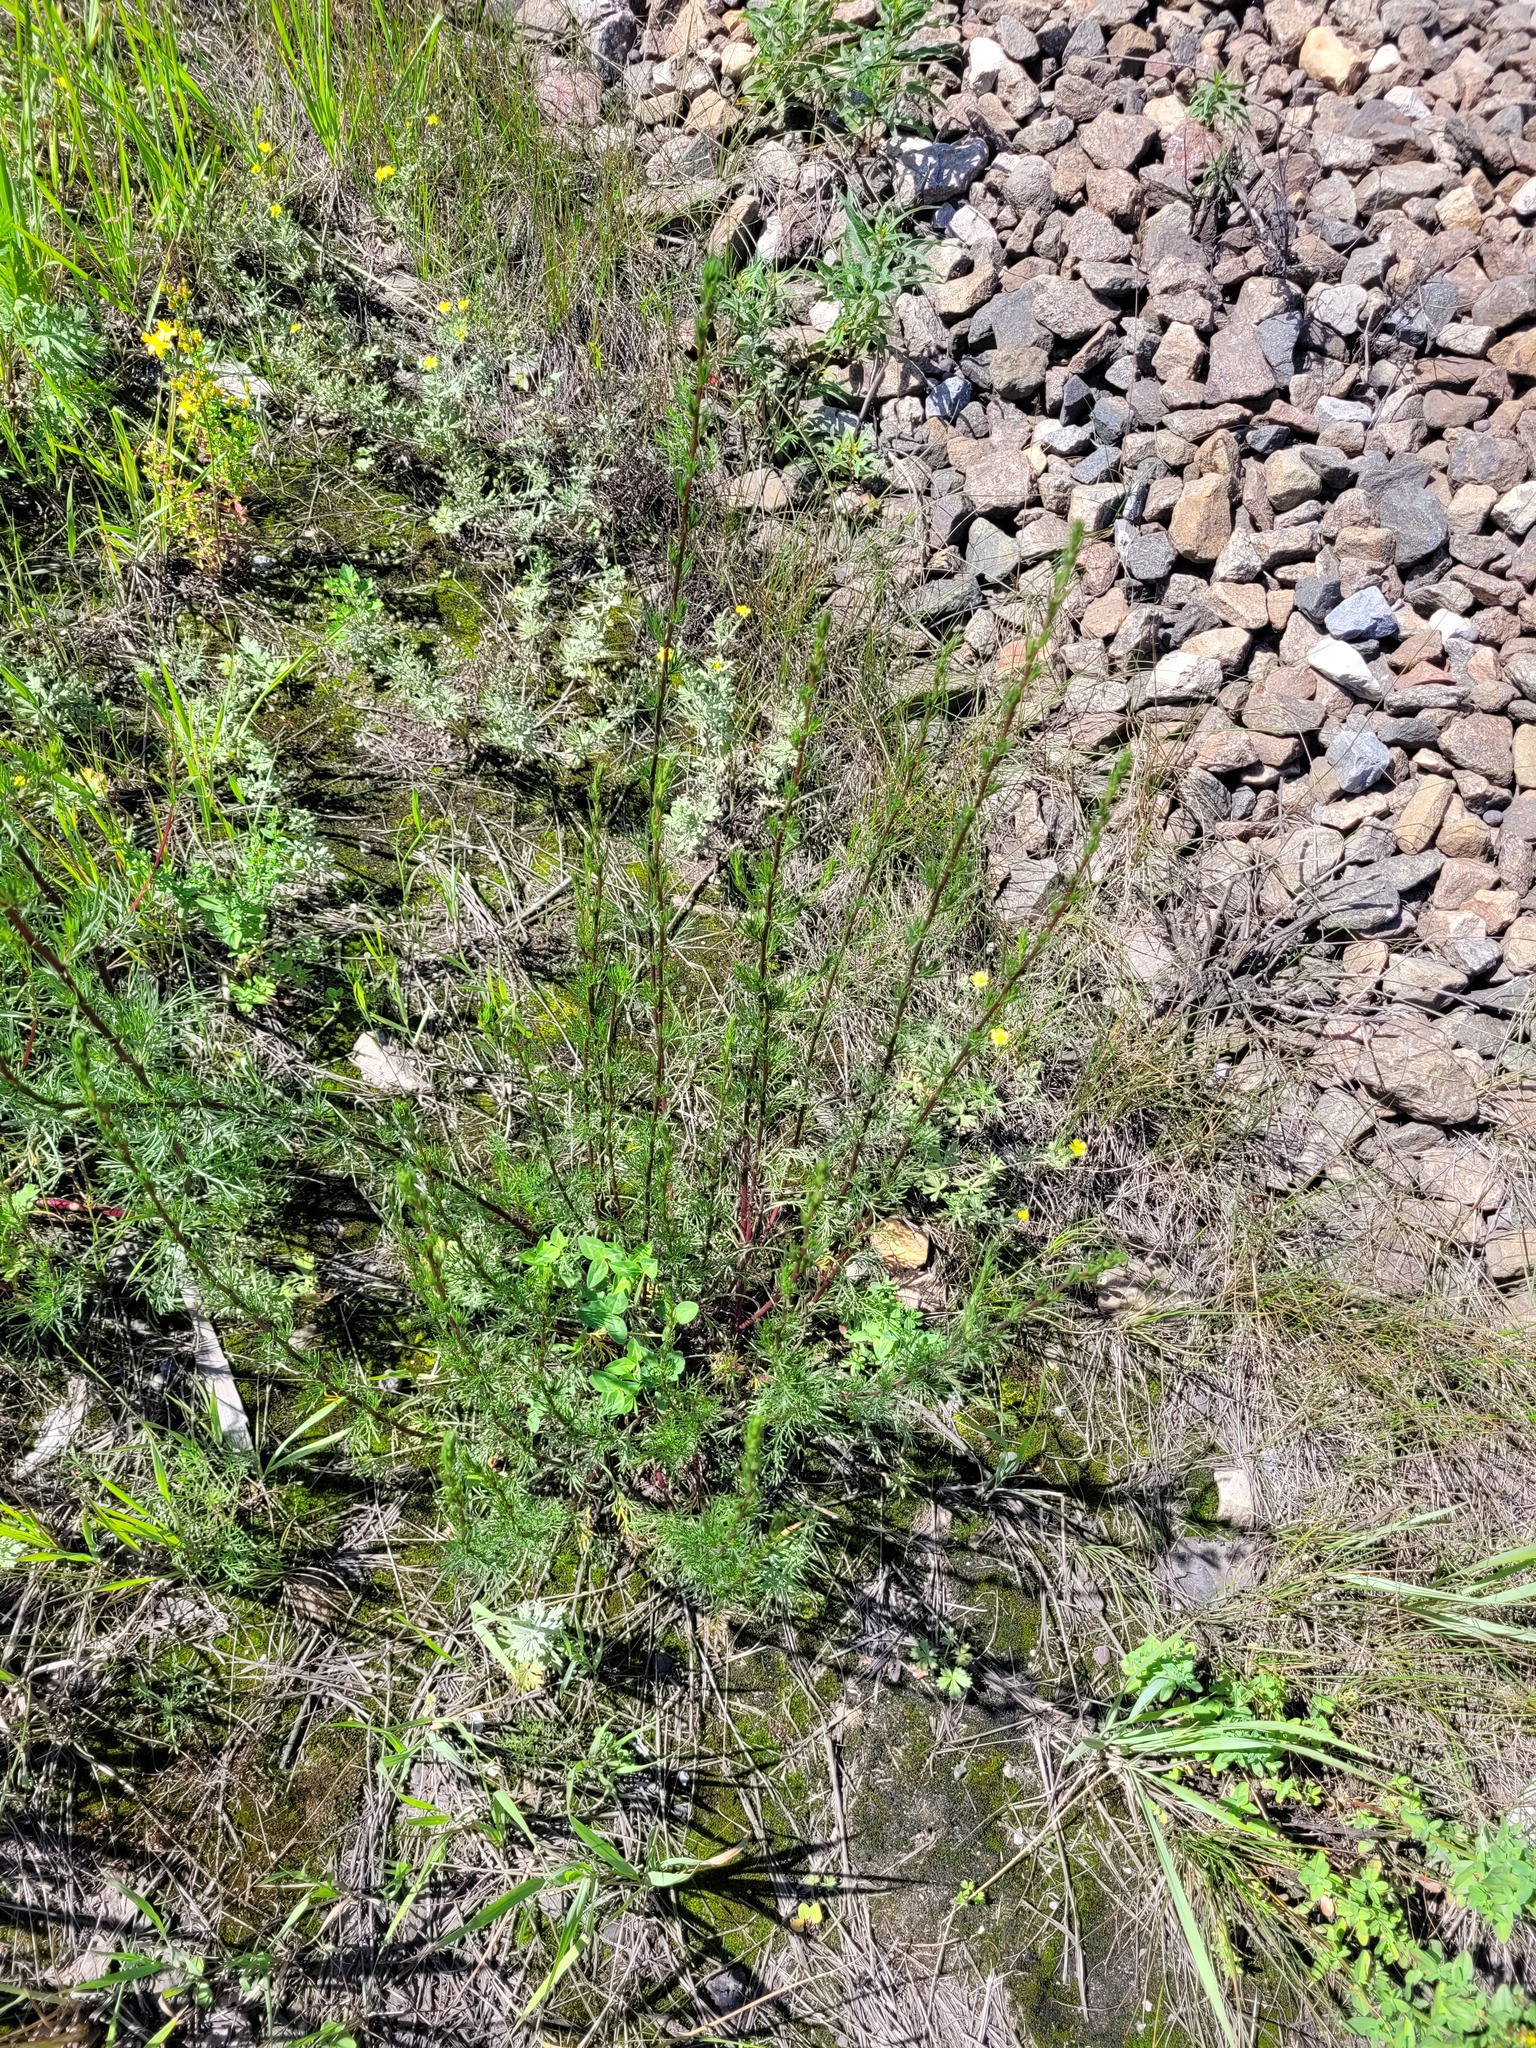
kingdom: Plantae
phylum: Tracheophyta
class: Magnoliopsida
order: Asterales
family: Asteraceae
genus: Artemisia
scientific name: Artemisia campestris
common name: Field wormwood
